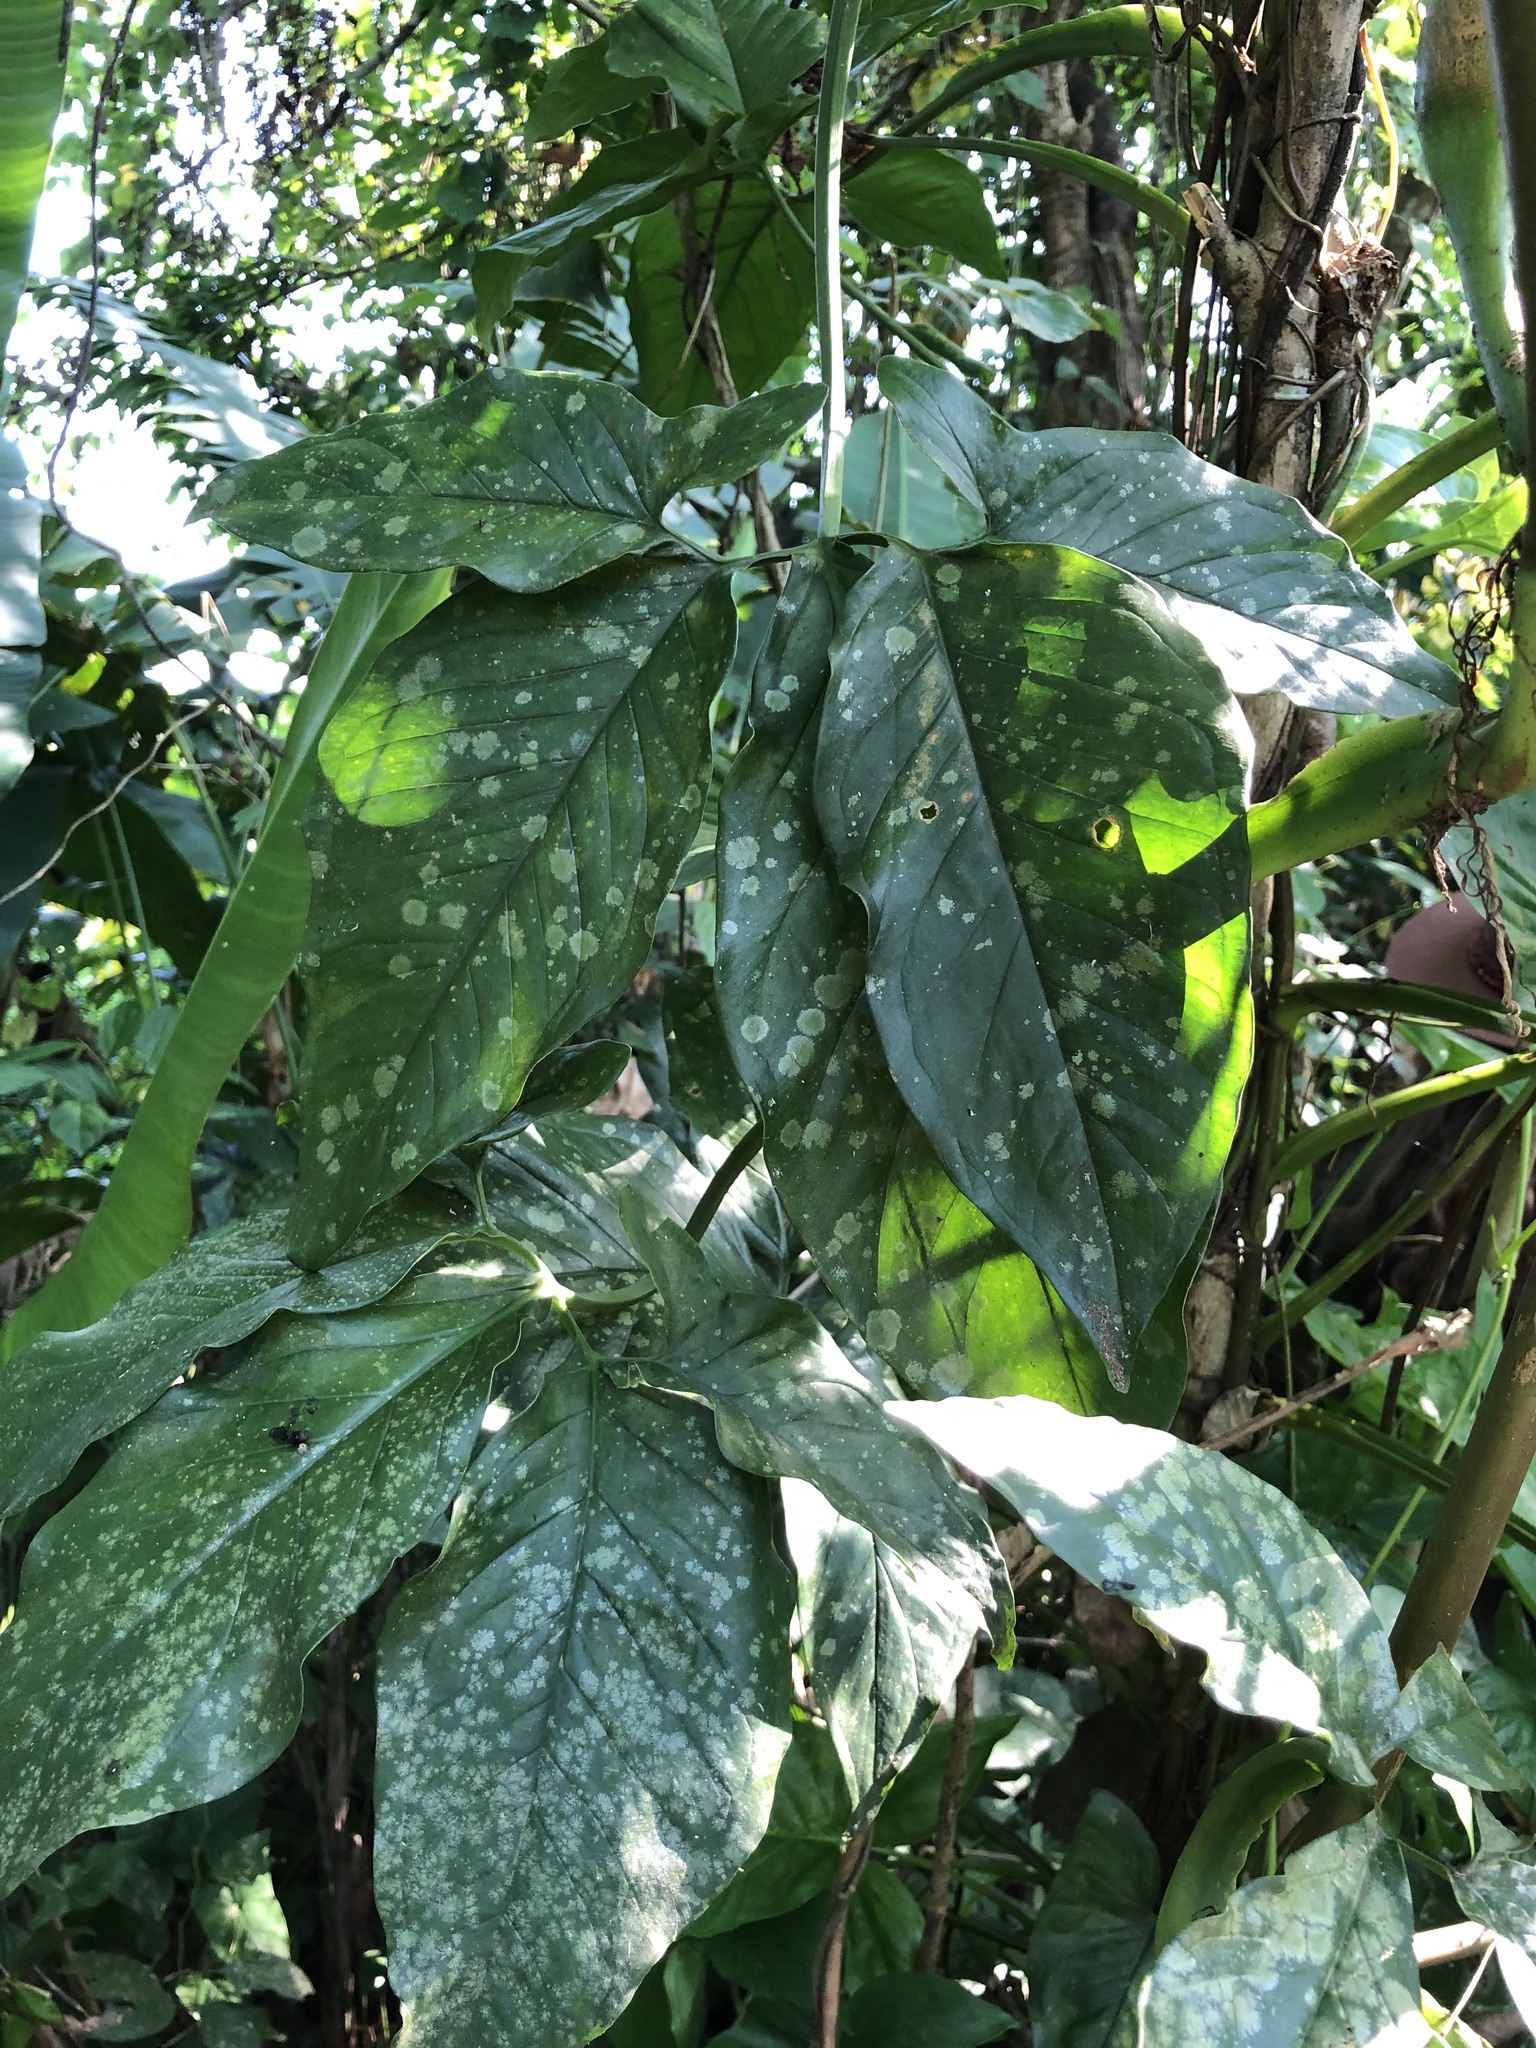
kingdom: Plantae
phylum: Tracheophyta
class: Liliopsida
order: Alismatales
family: Araceae
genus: Syngonium
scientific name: Syngonium podophyllum
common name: American evergreen
